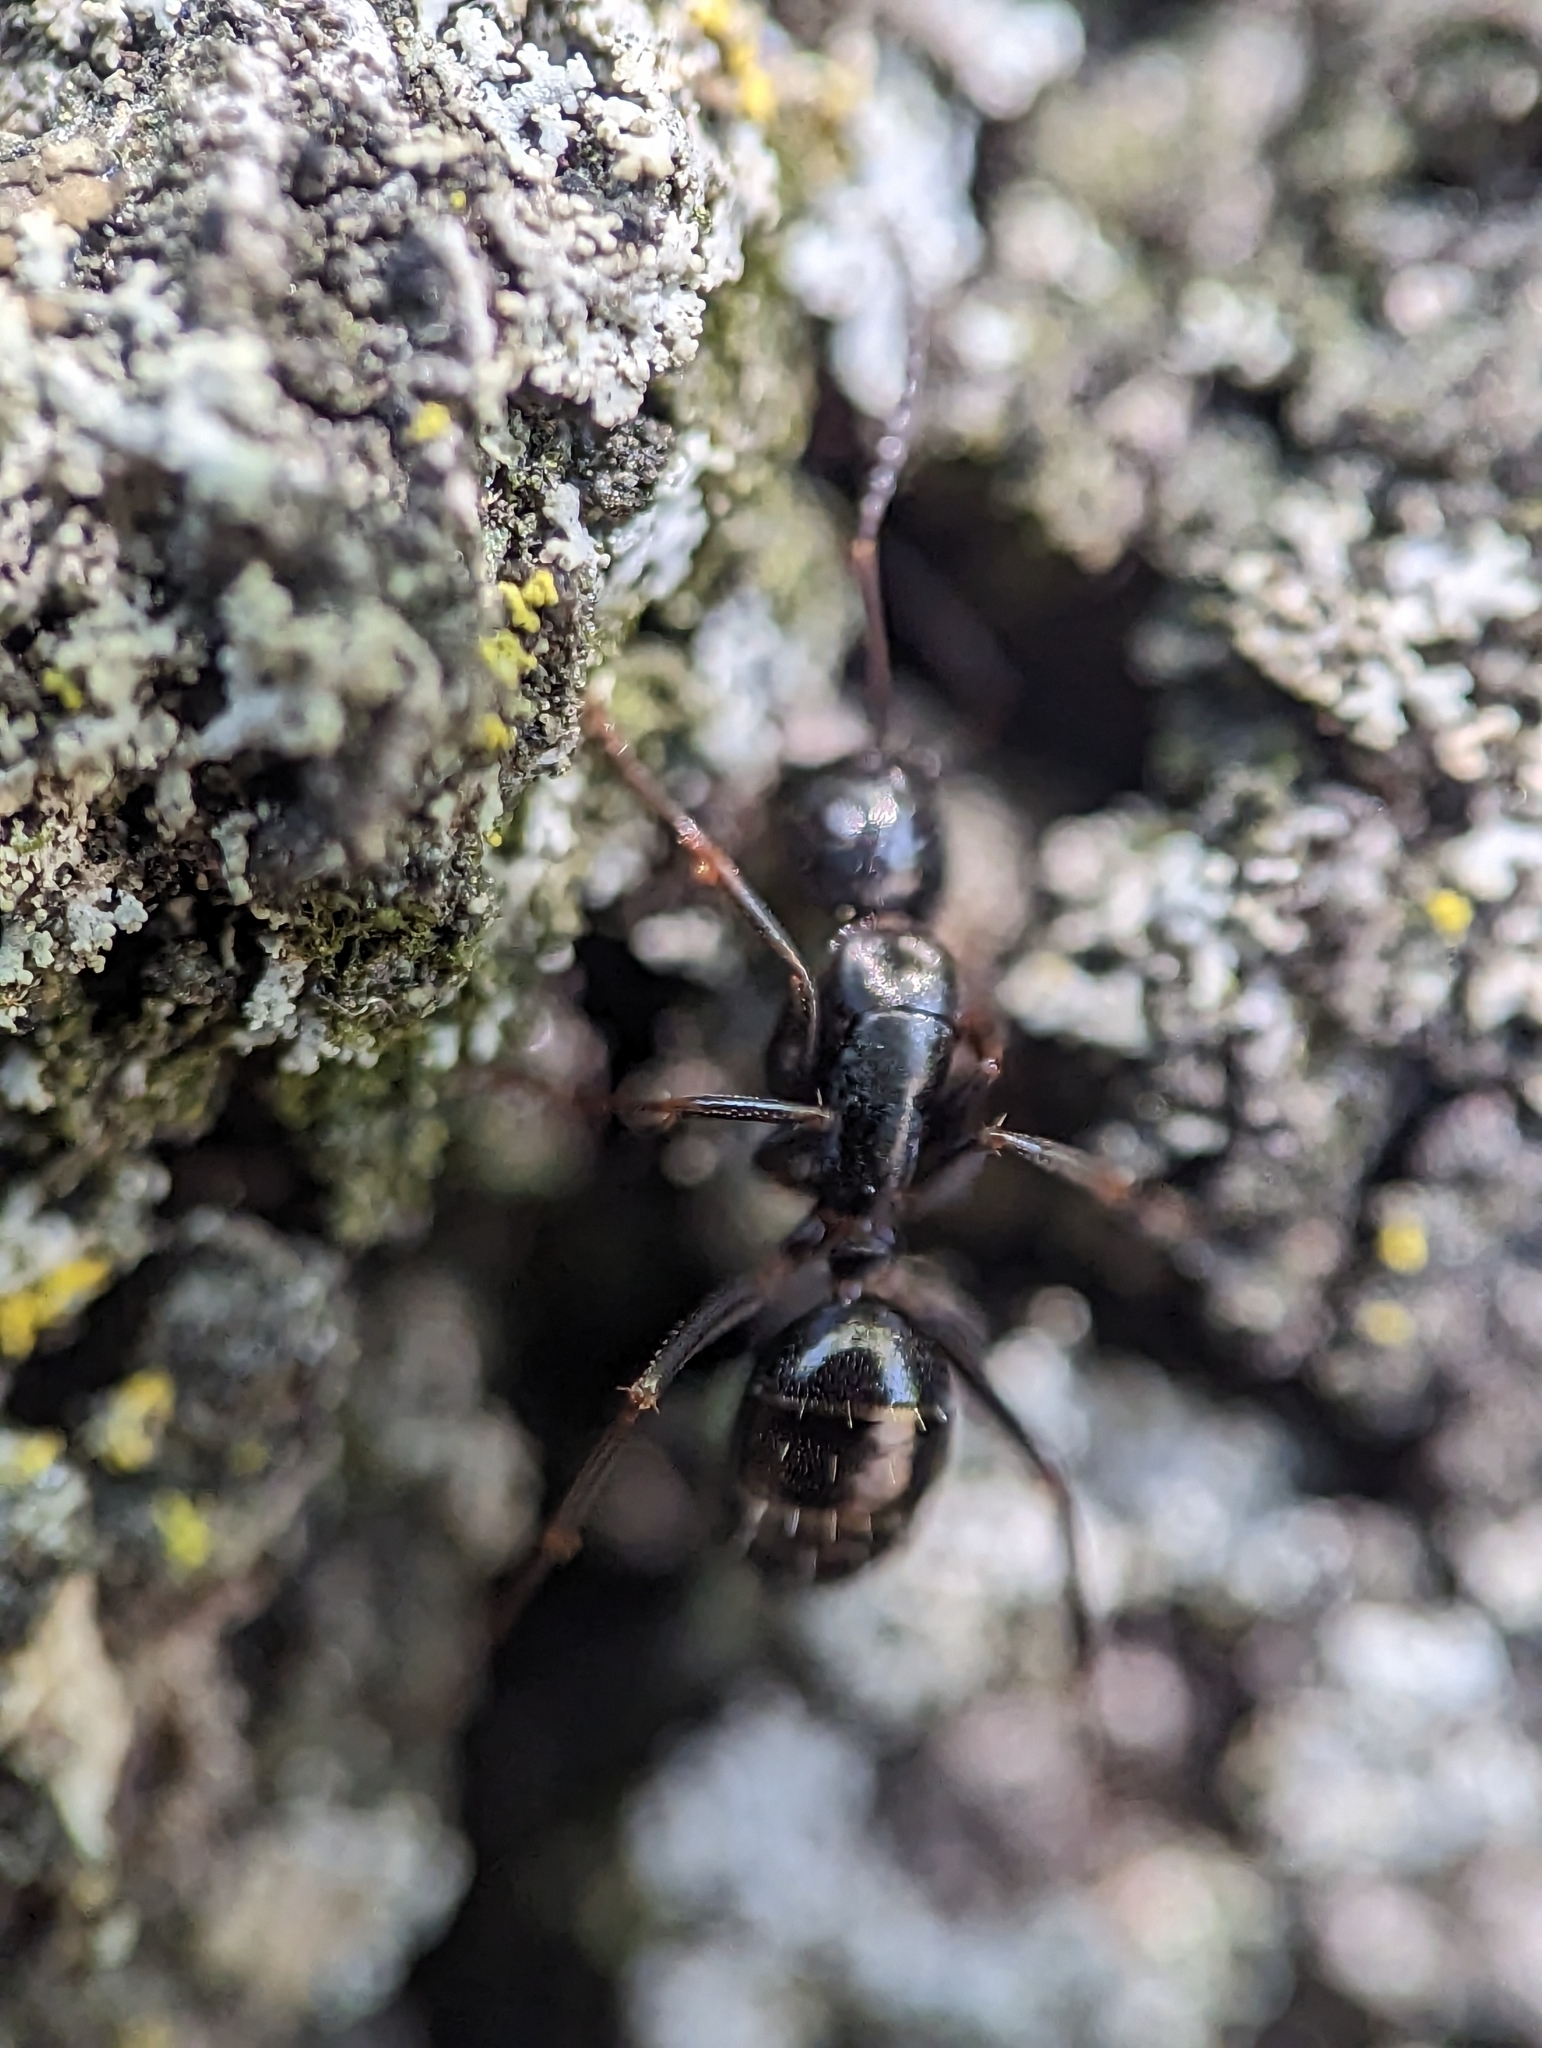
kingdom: Animalia
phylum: Arthropoda
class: Insecta
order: Hymenoptera
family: Formicidae
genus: Camponotus
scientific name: Camponotus nearcticus
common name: Smaller carpenter ant
